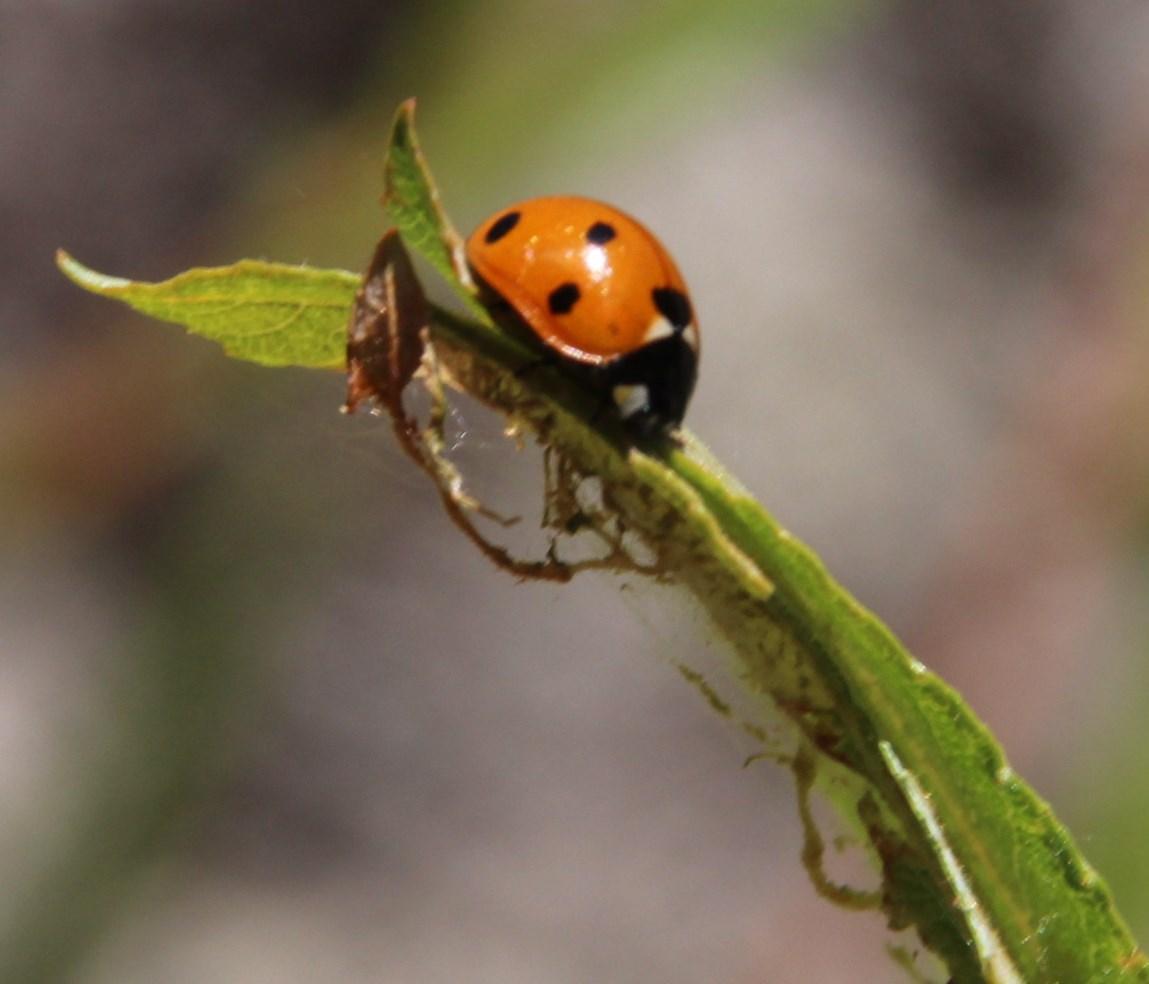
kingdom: Animalia
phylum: Arthropoda
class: Insecta
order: Coleoptera
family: Coccinellidae
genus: Coccinella
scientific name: Coccinella septempunctata
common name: Sevenspotted lady beetle
